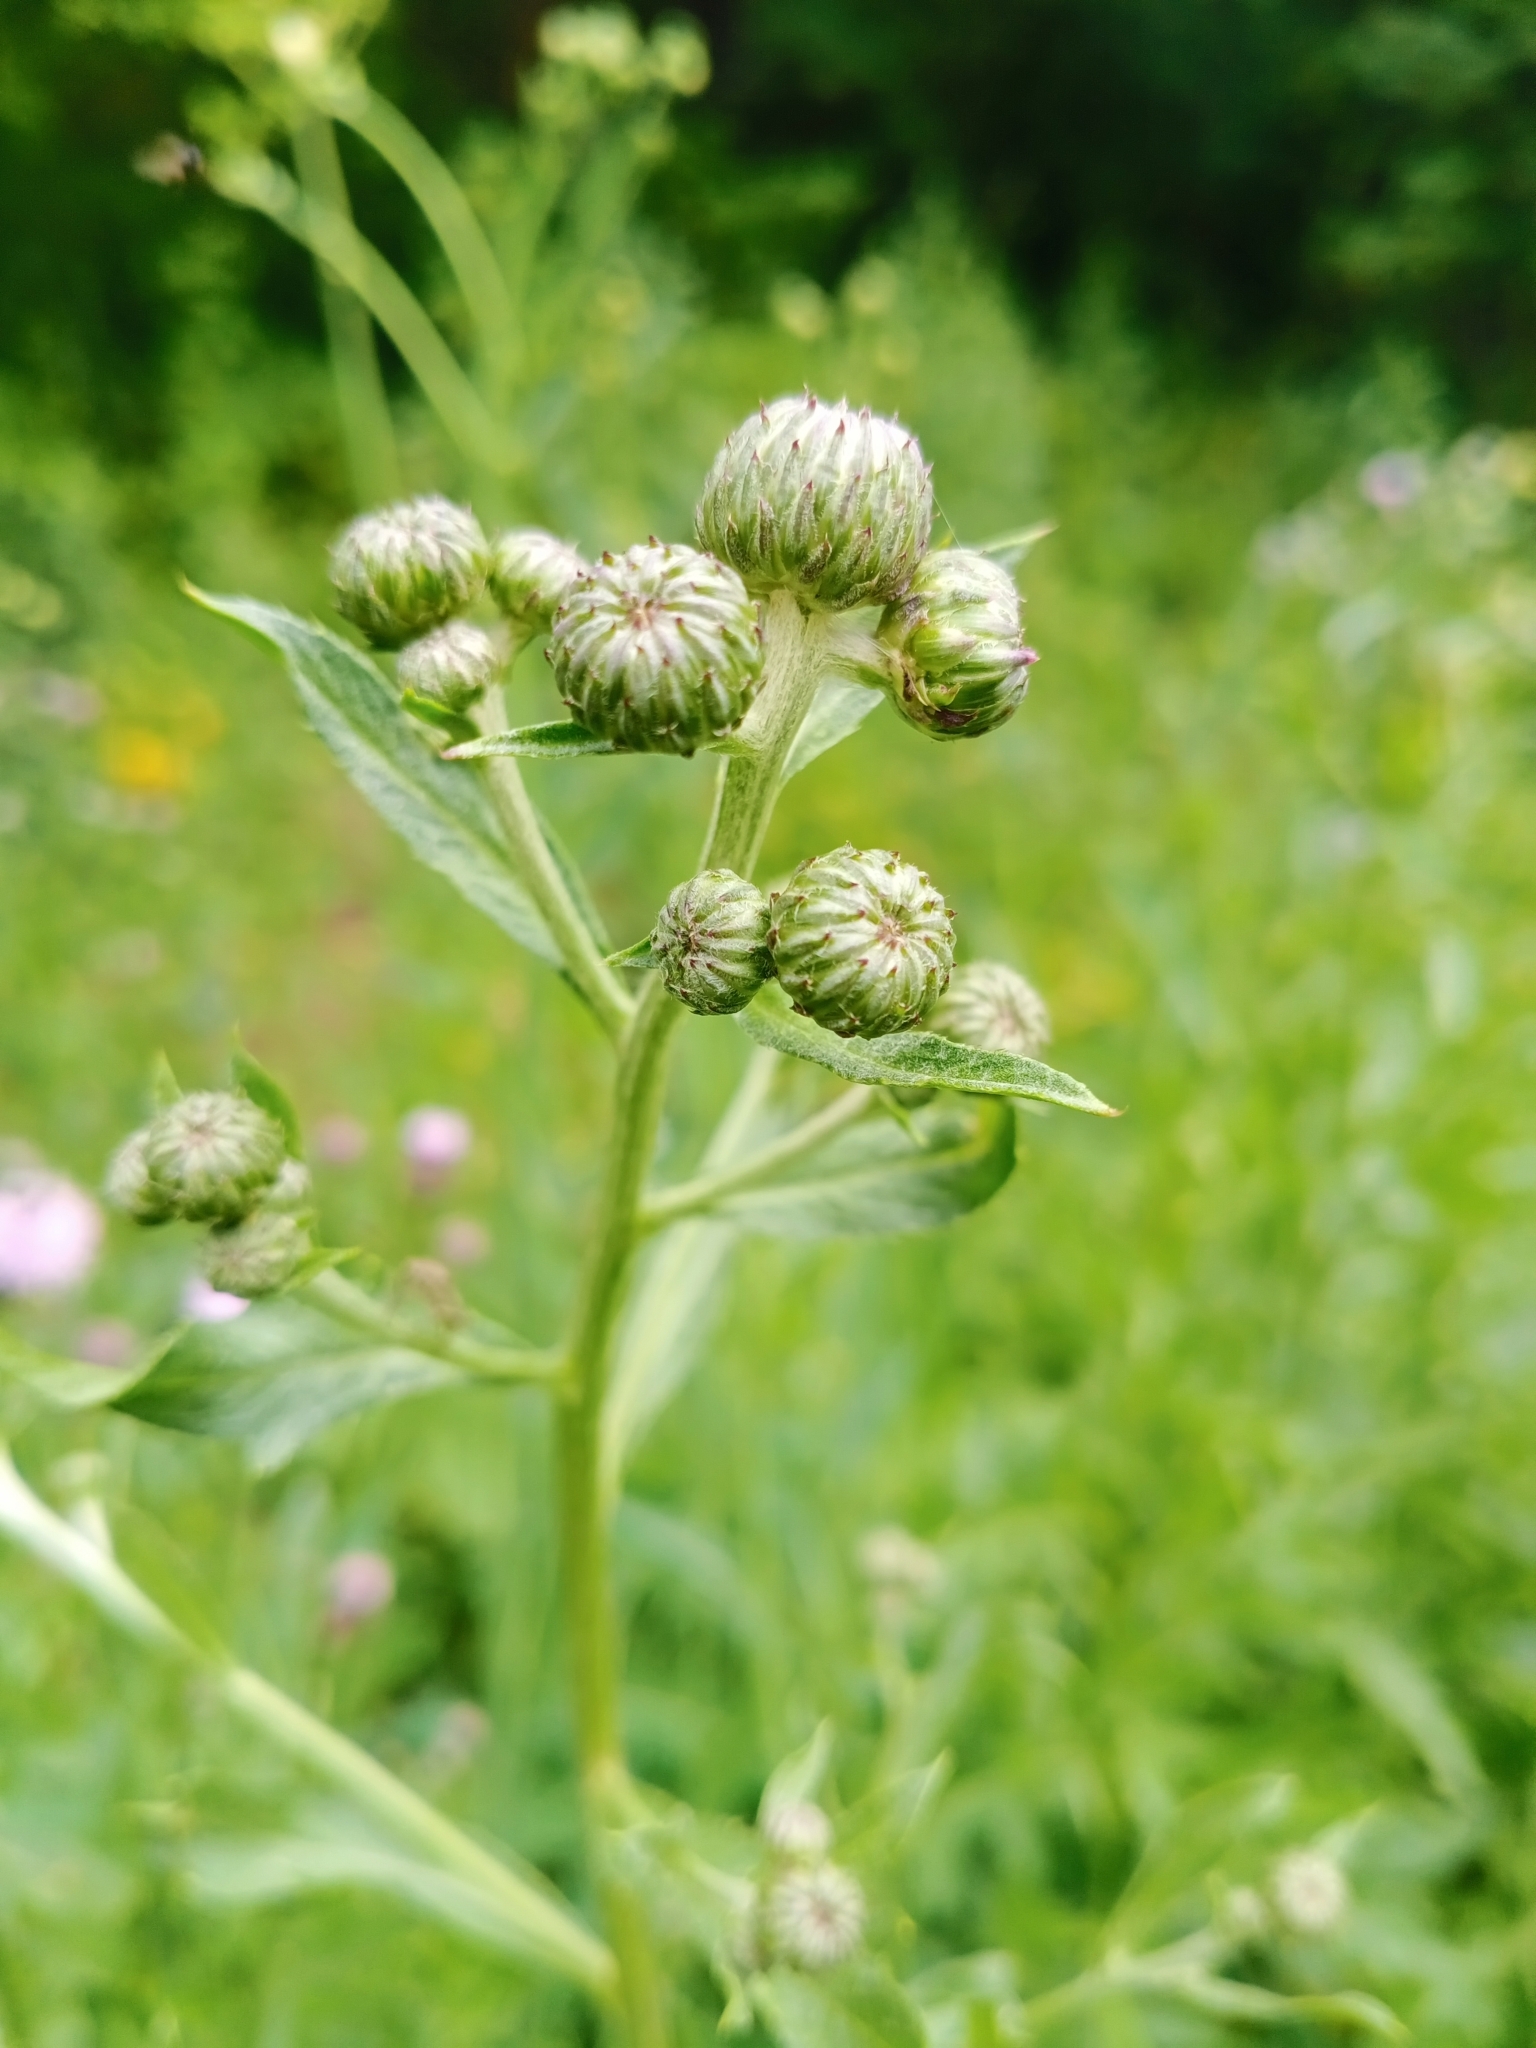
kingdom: Plantae
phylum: Tracheophyta
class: Magnoliopsida
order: Asterales
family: Asteraceae
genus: Cirsium
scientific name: Cirsium arvense
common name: Creeping thistle
